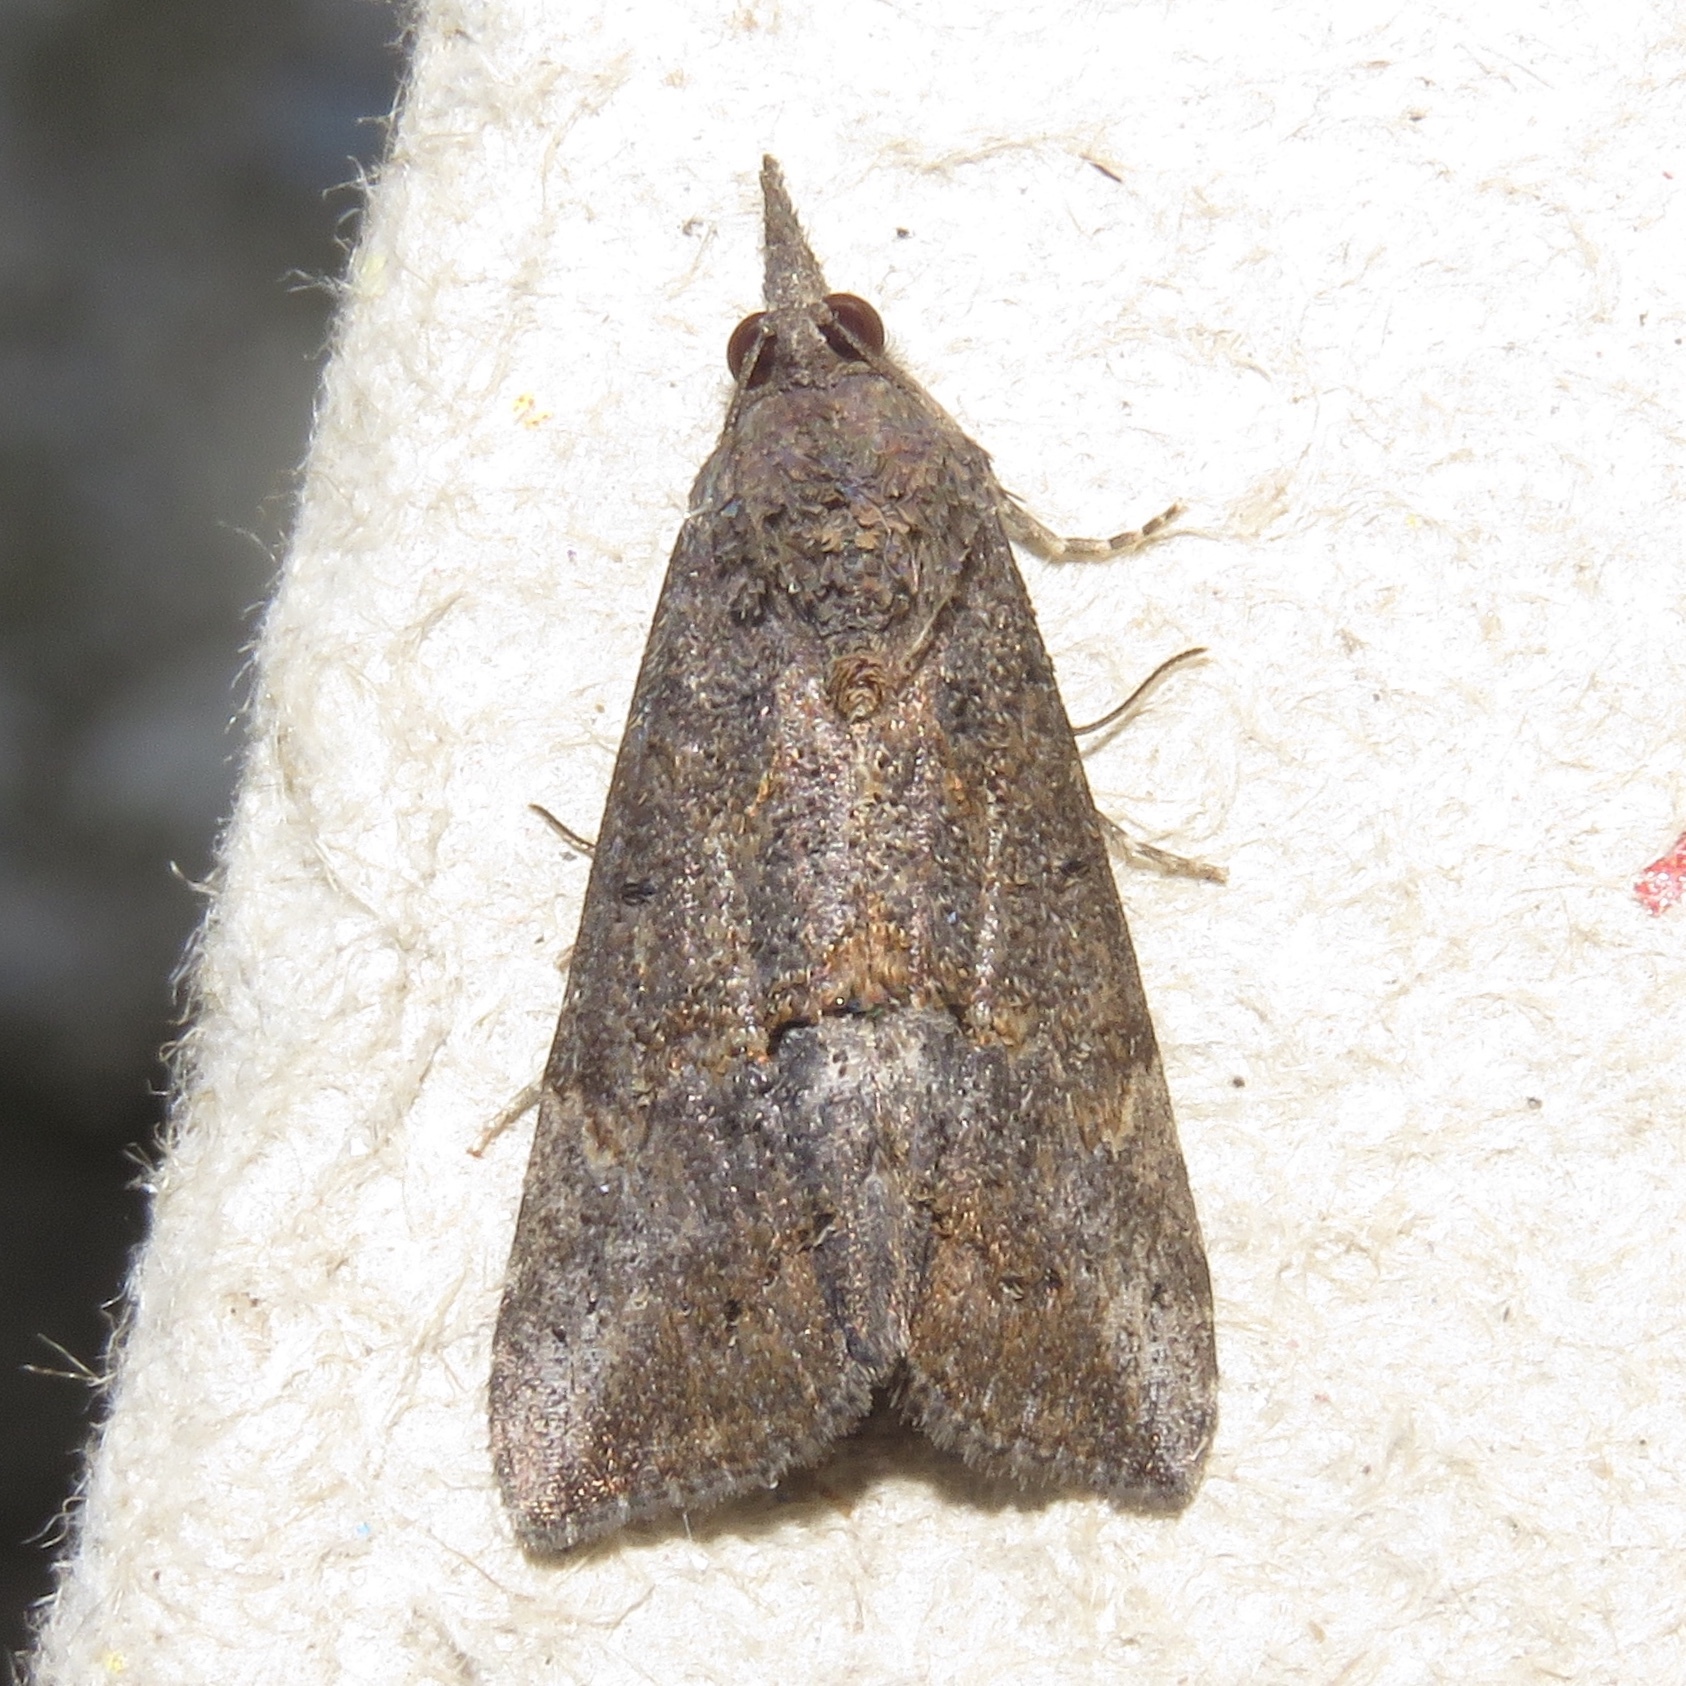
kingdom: Animalia
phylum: Arthropoda
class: Insecta
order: Lepidoptera
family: Erebidae
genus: Hypena
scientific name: Hypena scabra
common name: Green cloverworm
